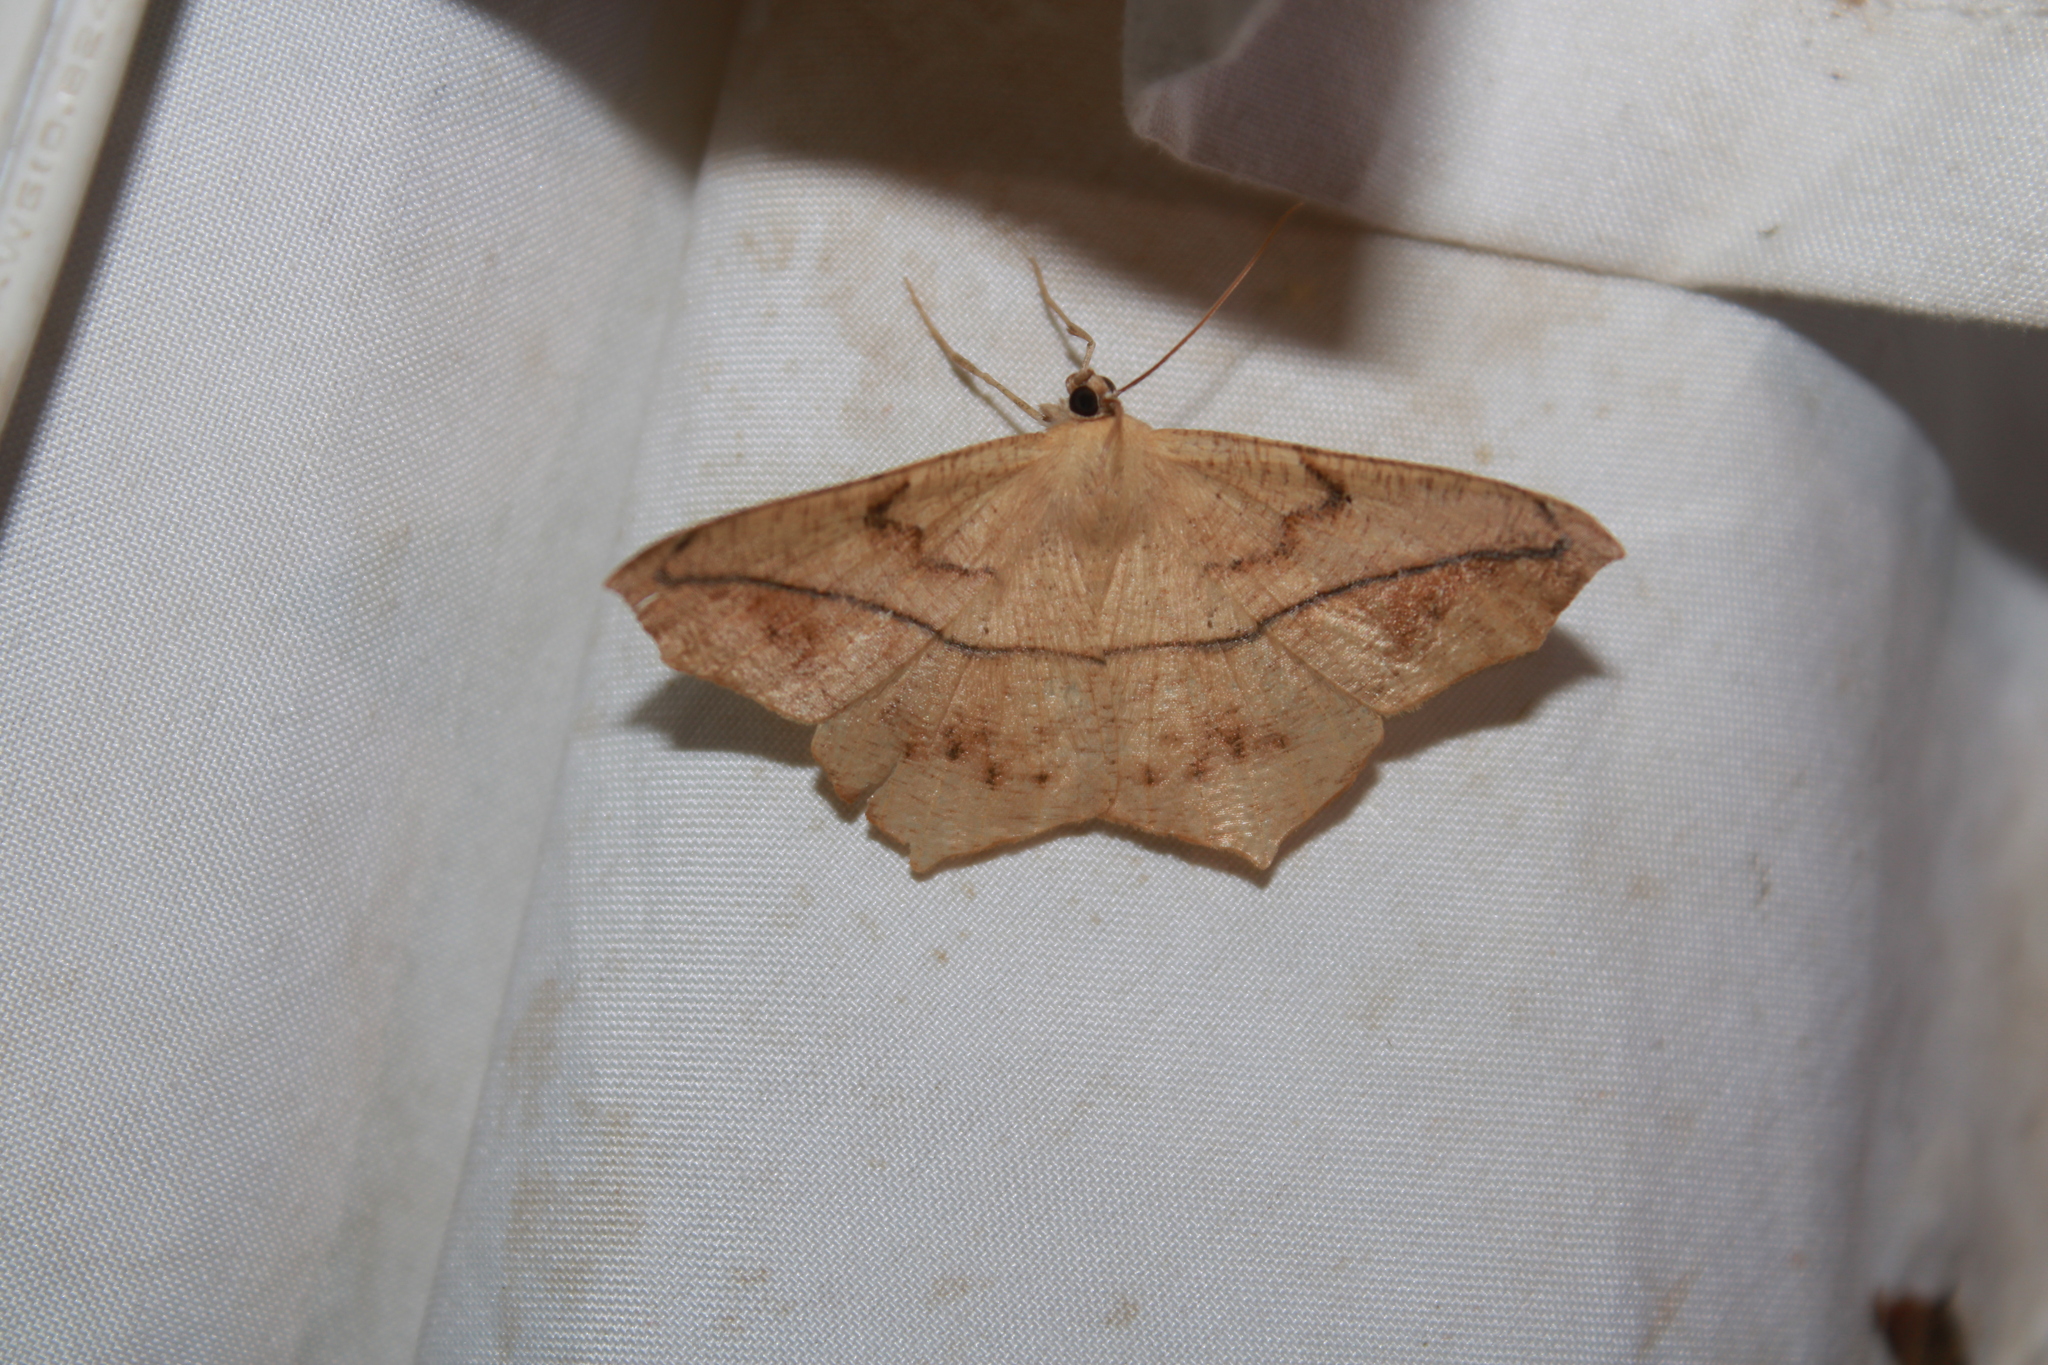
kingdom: Animalia
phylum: Arthropoda
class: Insecta
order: Lepidoptera
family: Geometridae
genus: Prochoerodes
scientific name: Prochoerodes lineola
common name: Large maple spanworm
